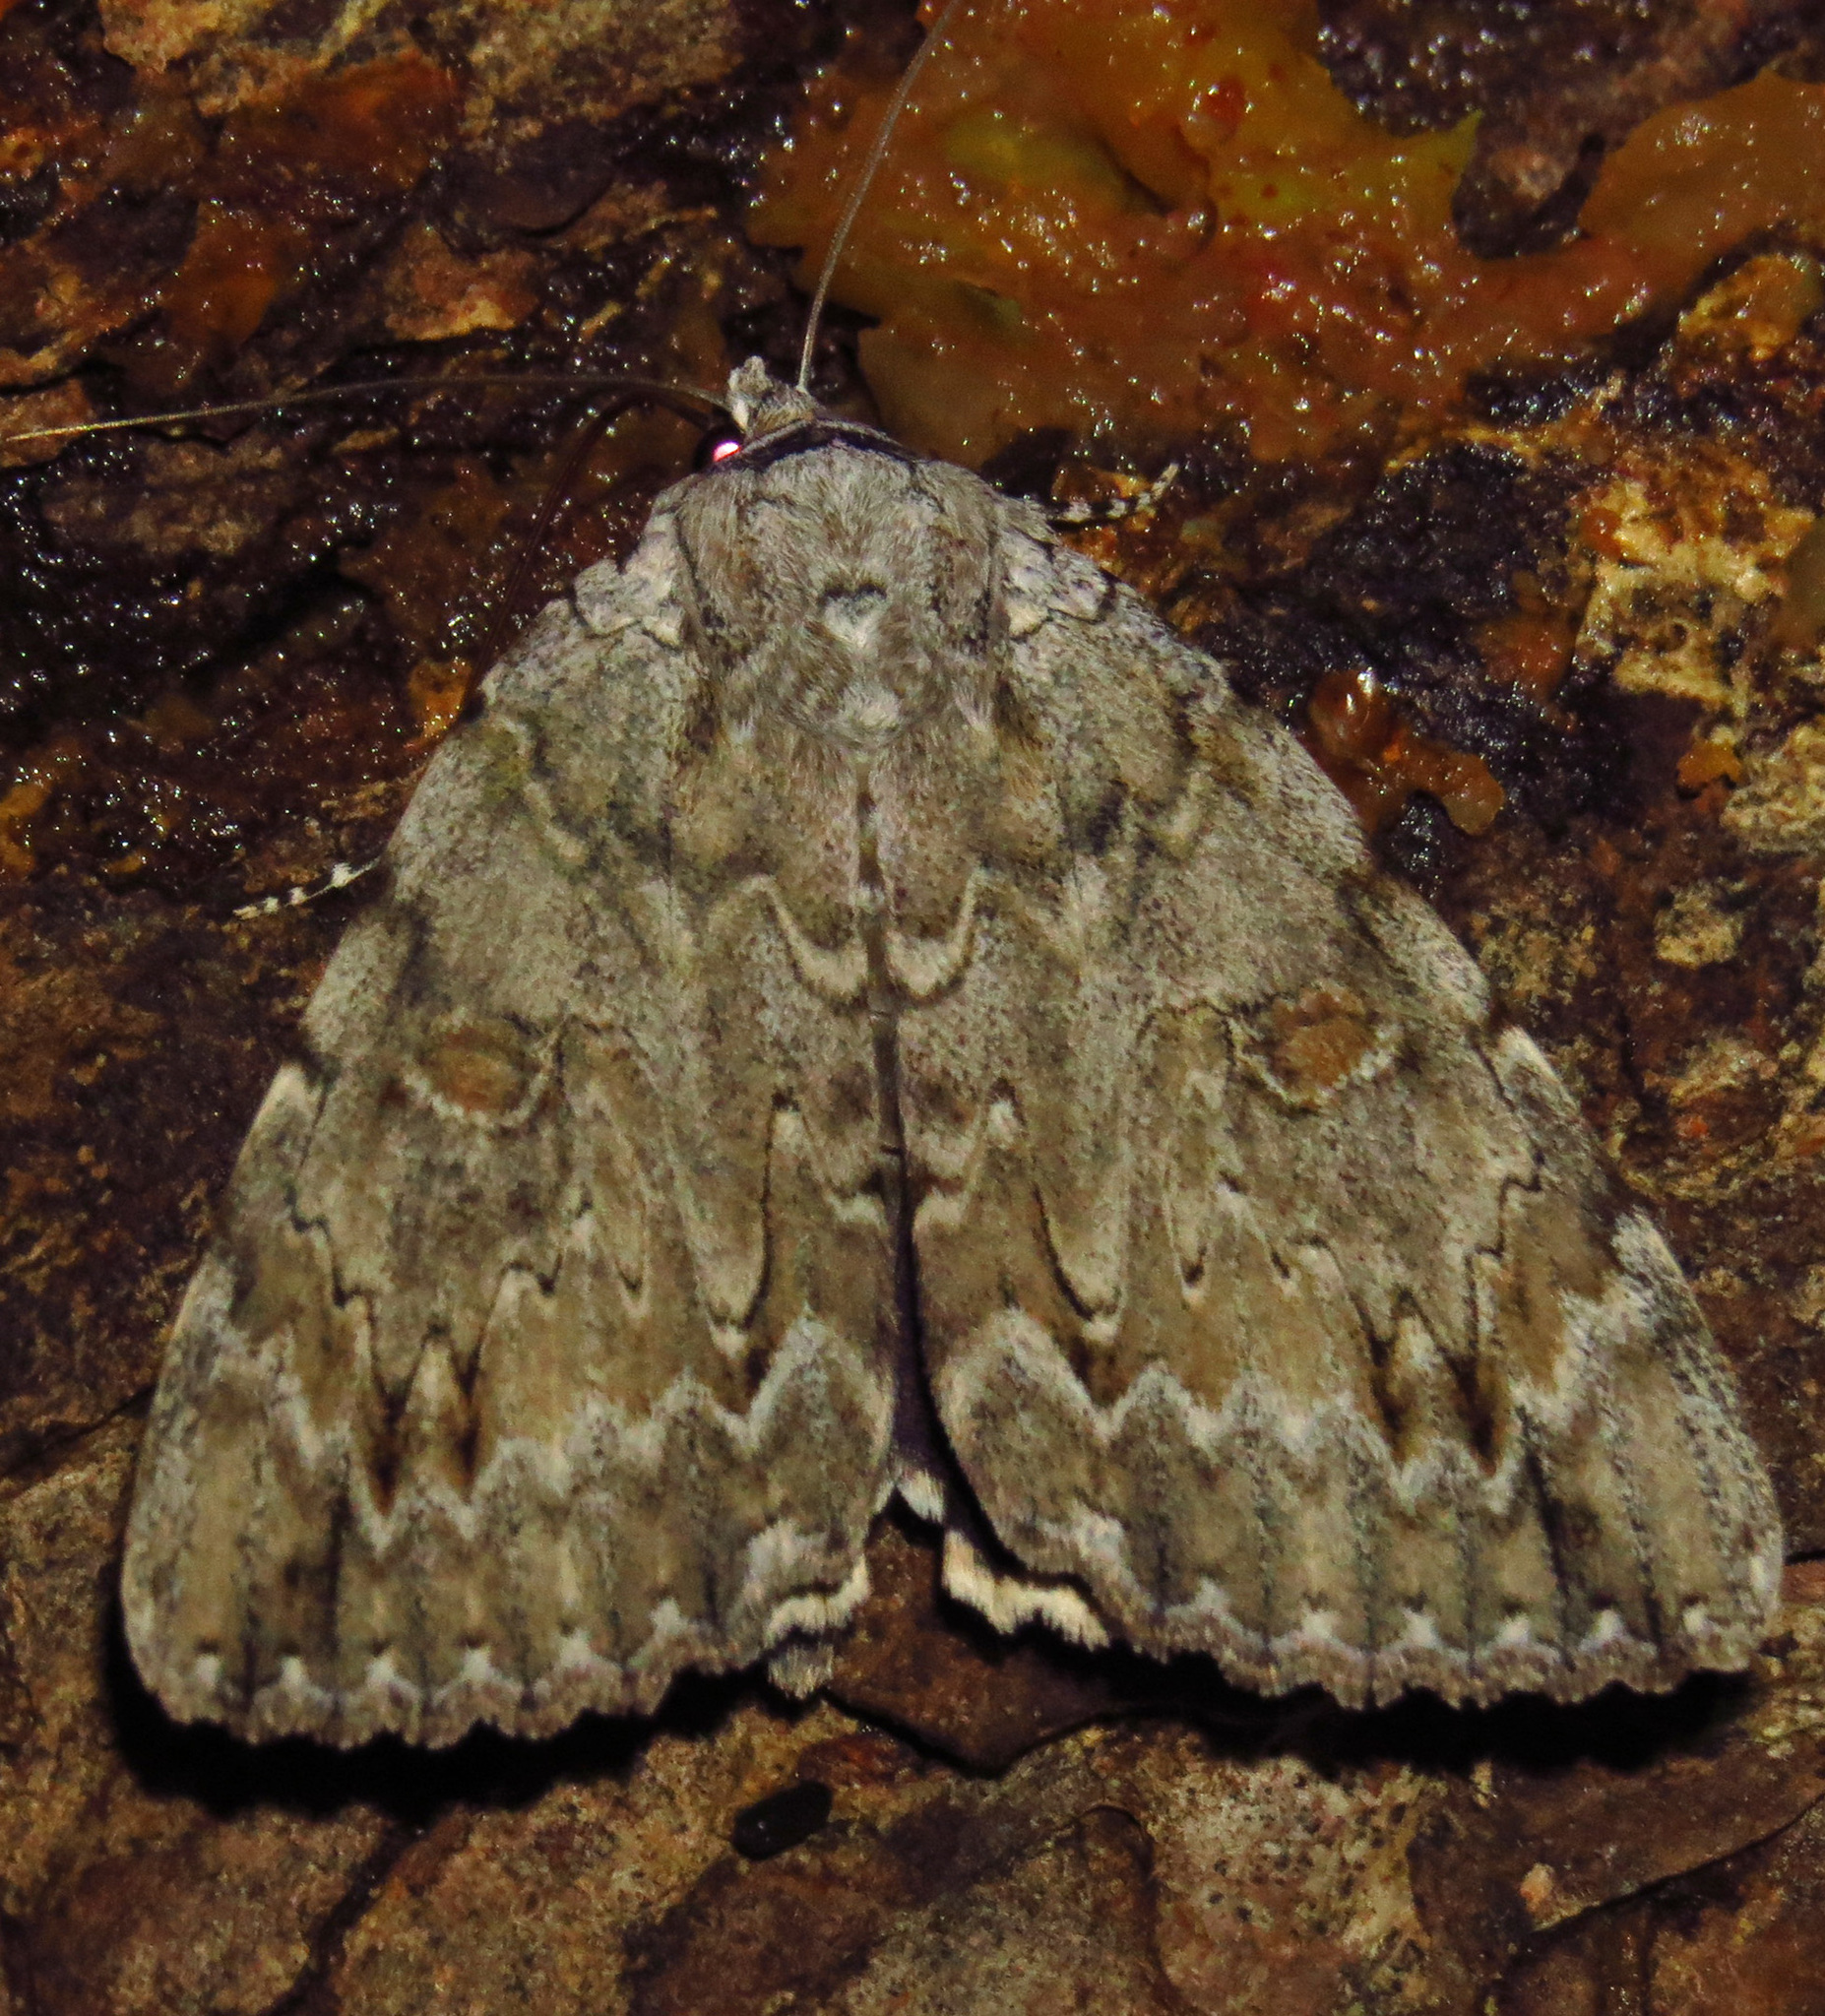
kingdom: Animalia
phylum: Arthropoda
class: Insecta
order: Lepidoptera
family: Erebidae
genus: Catocala
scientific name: Catocala robinsoni
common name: Robinson's underwing
